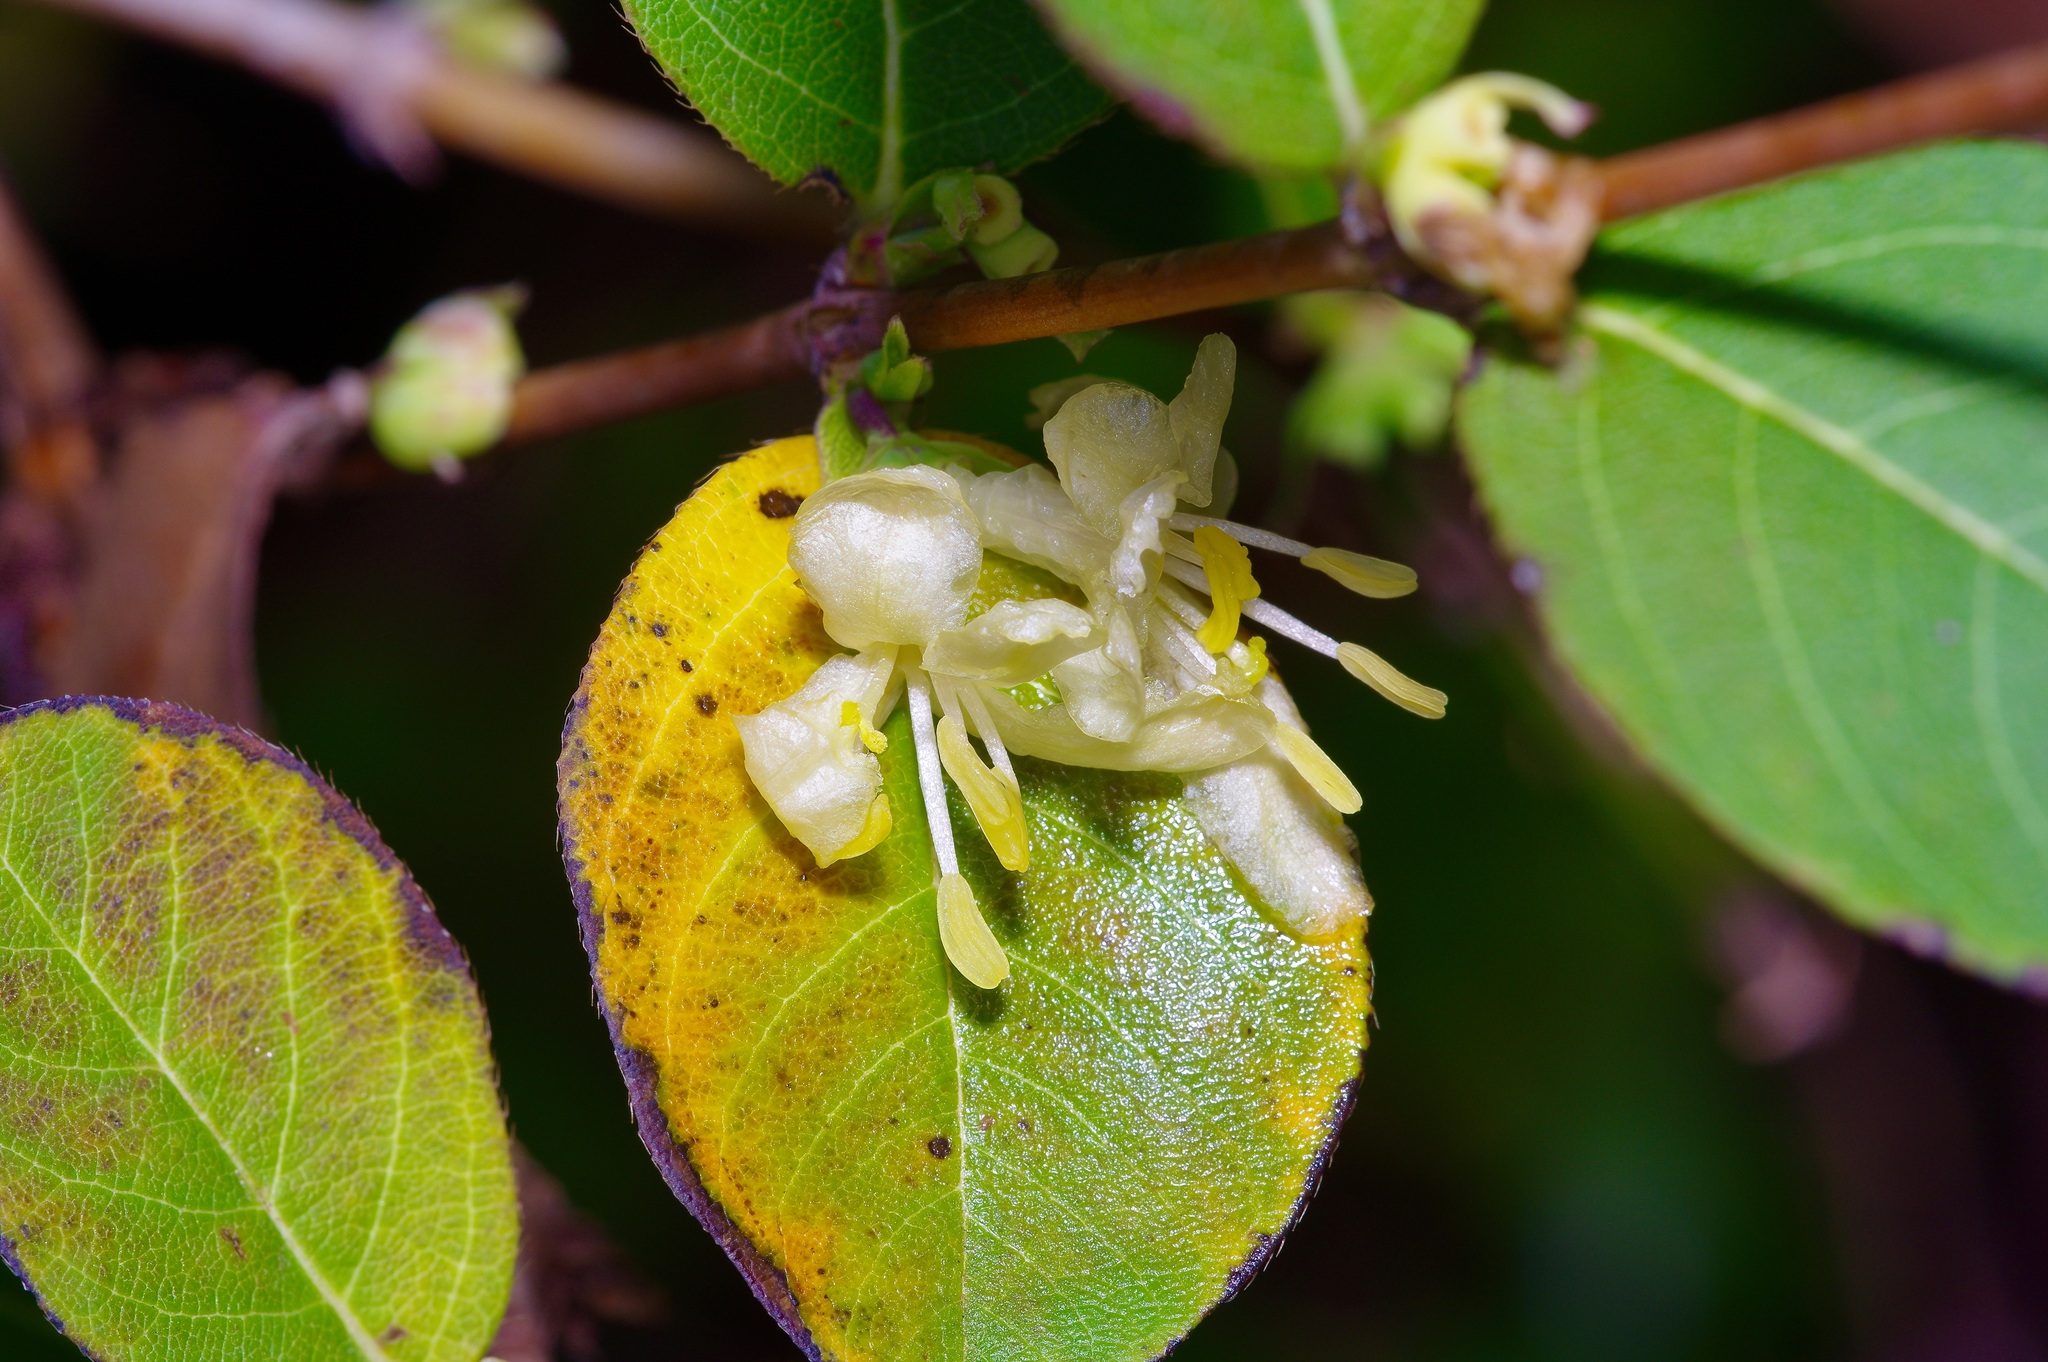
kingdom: Plantae
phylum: Tracheophyta
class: Magnoliopsida
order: Dipsacales
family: Caprifoliaceae
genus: Lonicera
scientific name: Lonicera fragrantissima
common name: Fragrant honeysuckle
